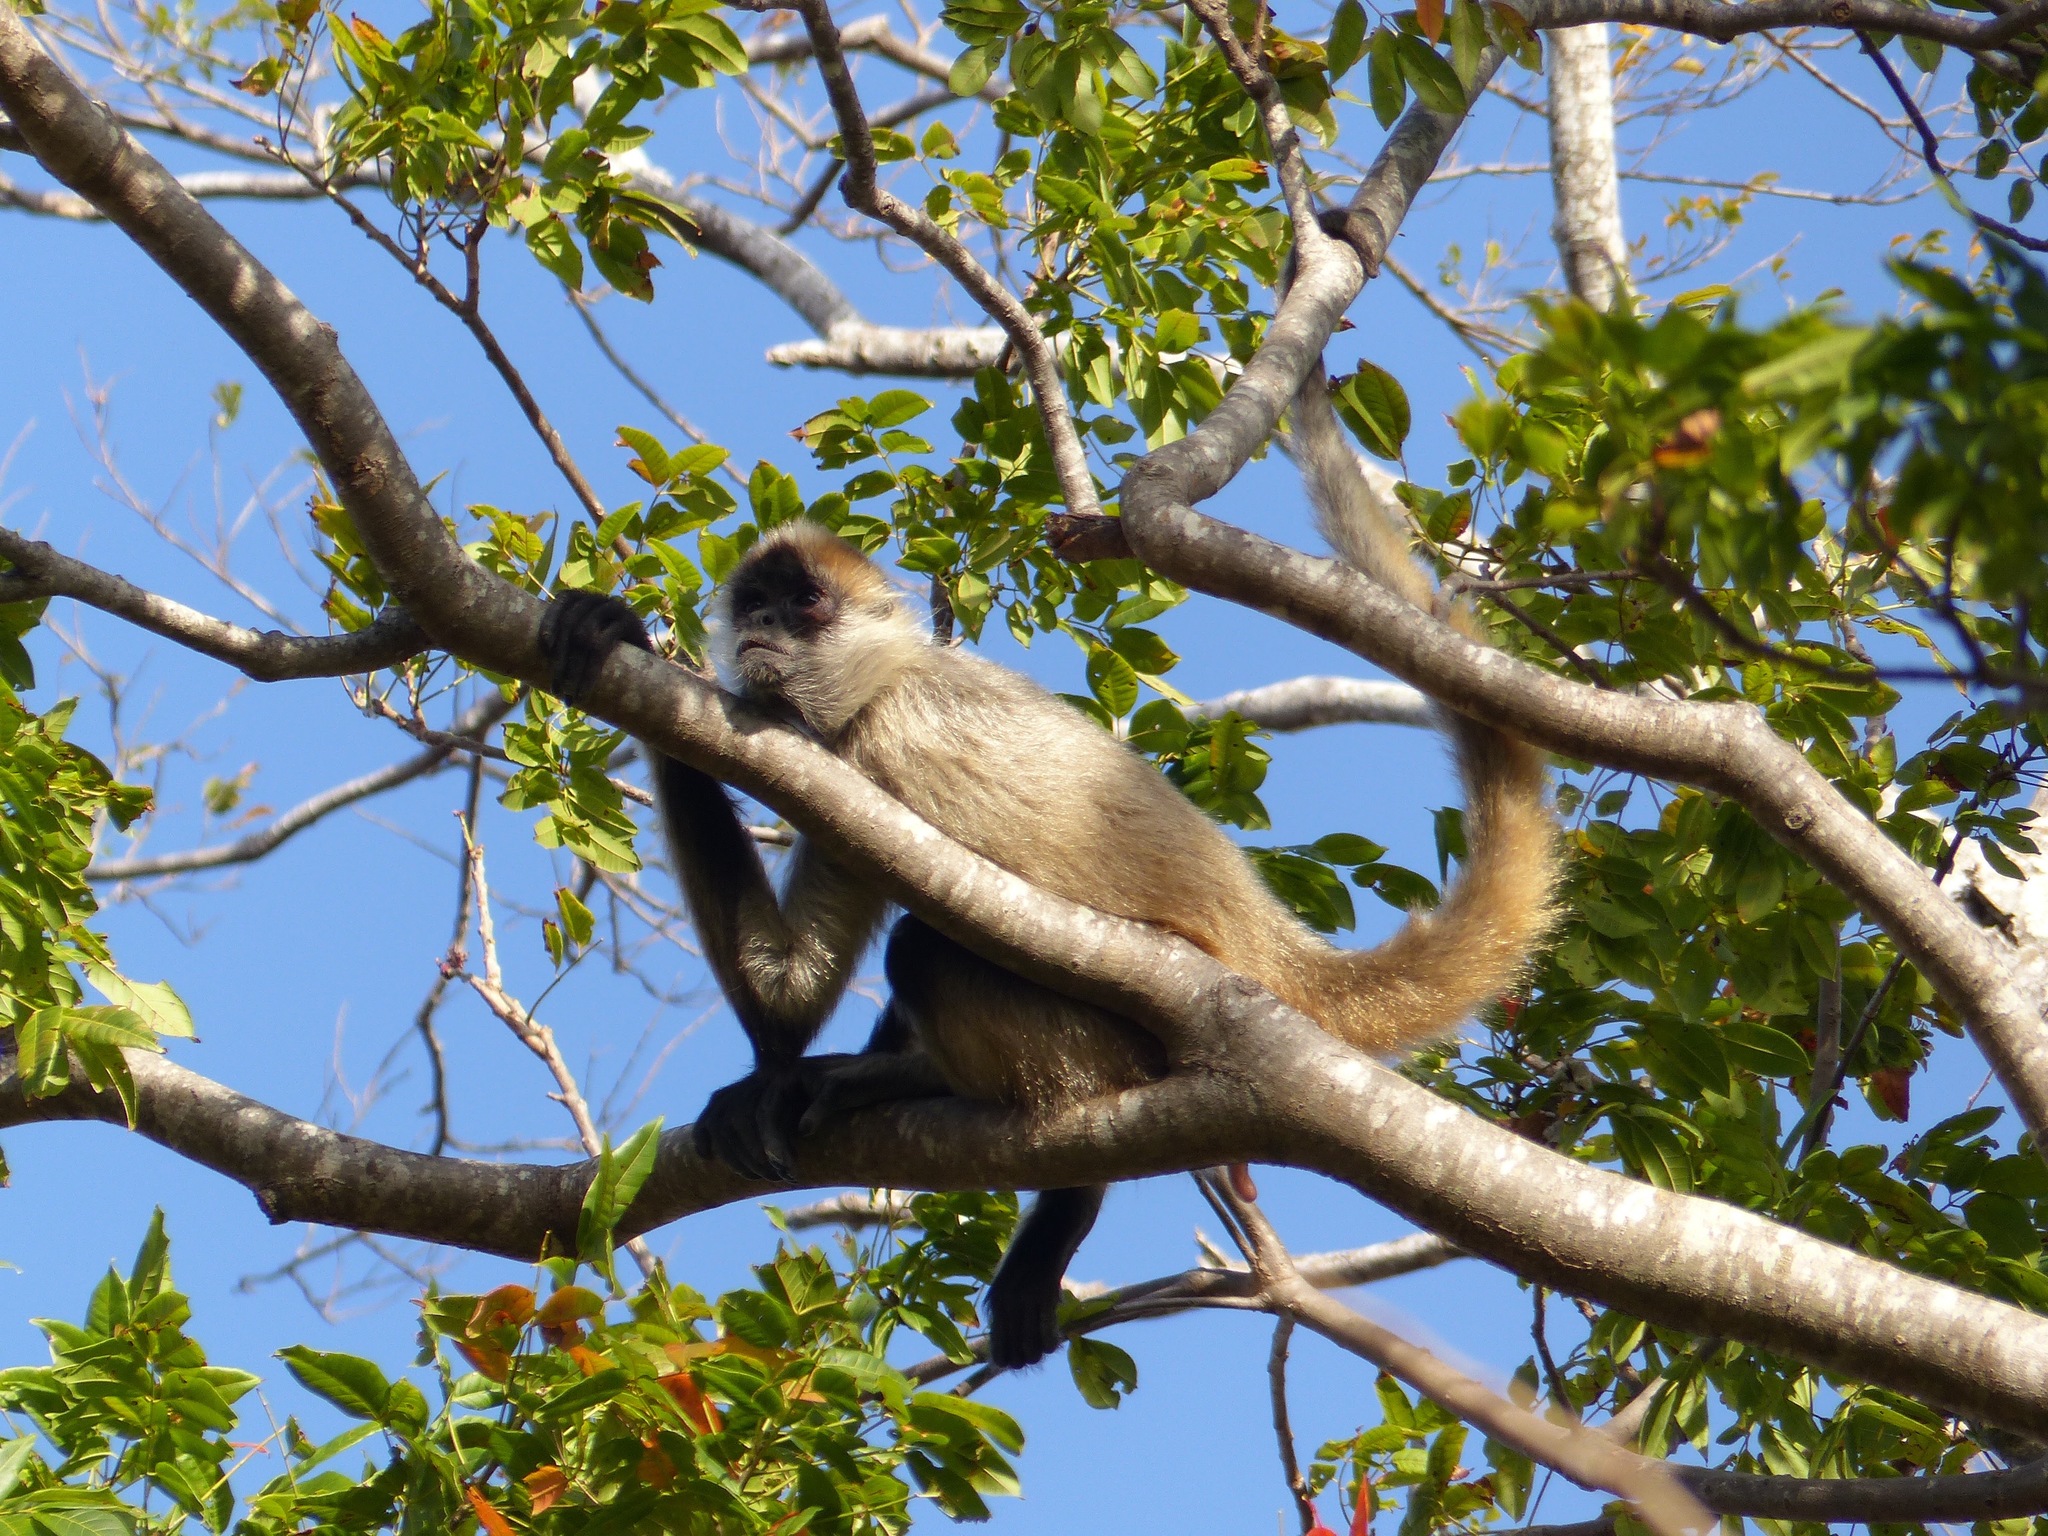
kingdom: Animalia
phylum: Chordata
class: Mammalia
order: Primates
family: Atelidae
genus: Ateles
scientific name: Ateles geoffroyi
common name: Black-handed spider monkey
